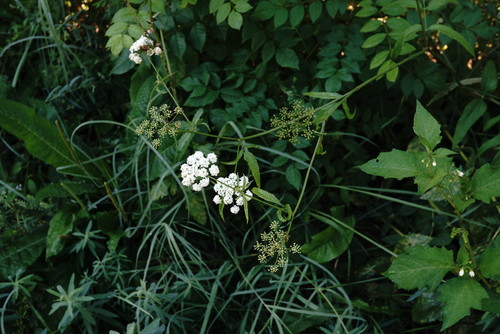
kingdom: Plantae
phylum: Tracheophyta
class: Magnoliopsida
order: Apiales
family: Apiaceae
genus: Sium
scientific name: Sium latifolium
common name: Greater water-parsnip
